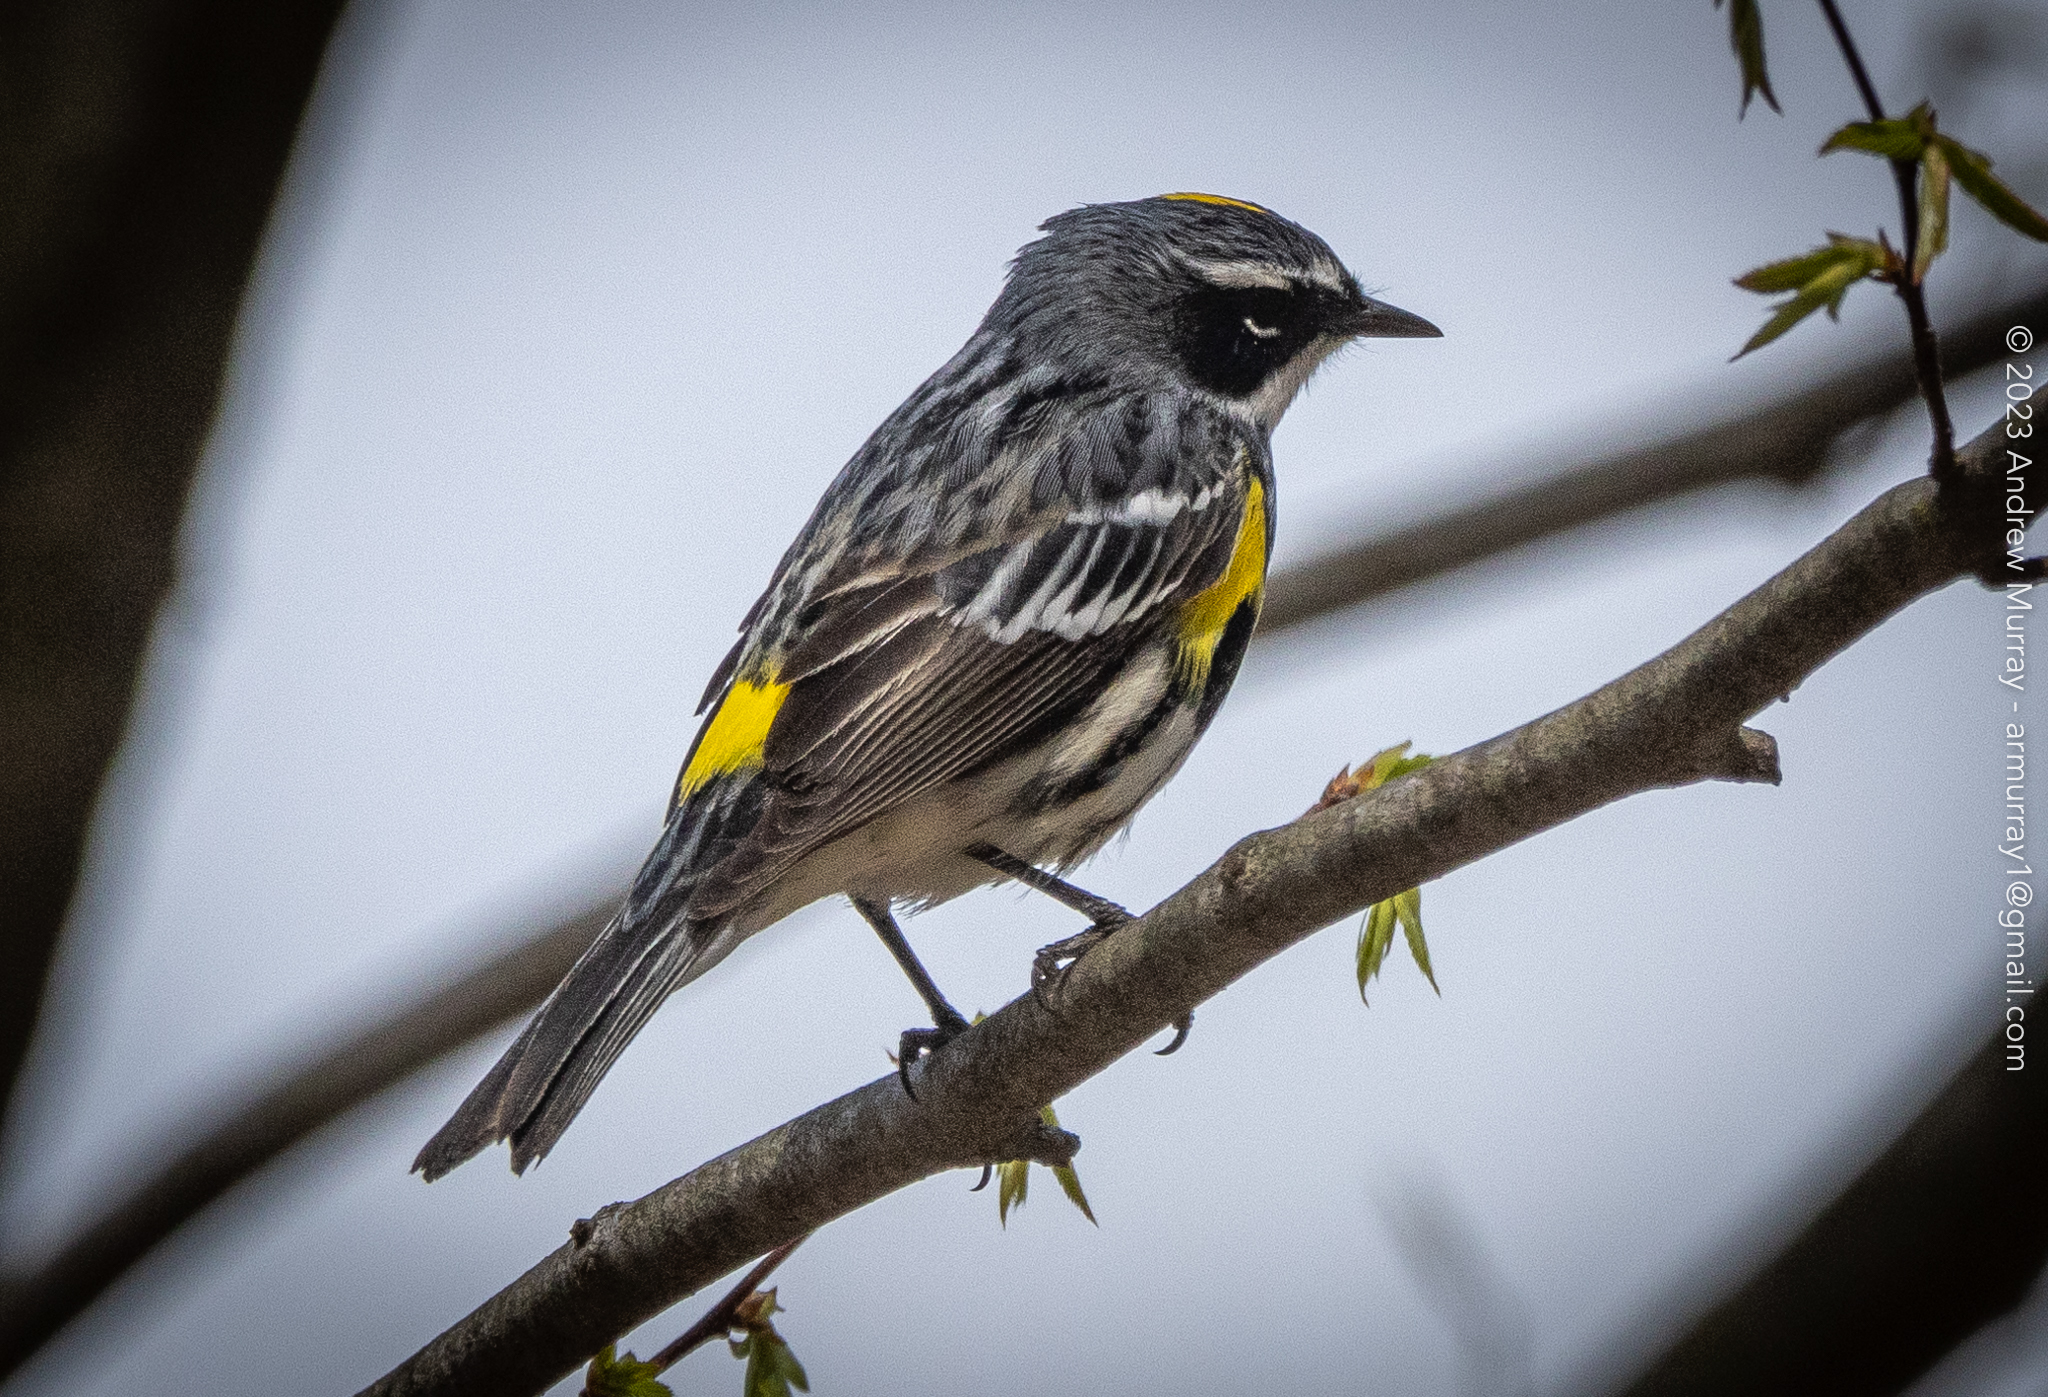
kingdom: Animalia
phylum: Chordata
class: Aves
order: Passeriformes
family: Parulidae
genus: Setophaga
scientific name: Setophaga coronata
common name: Myrtle warbler
